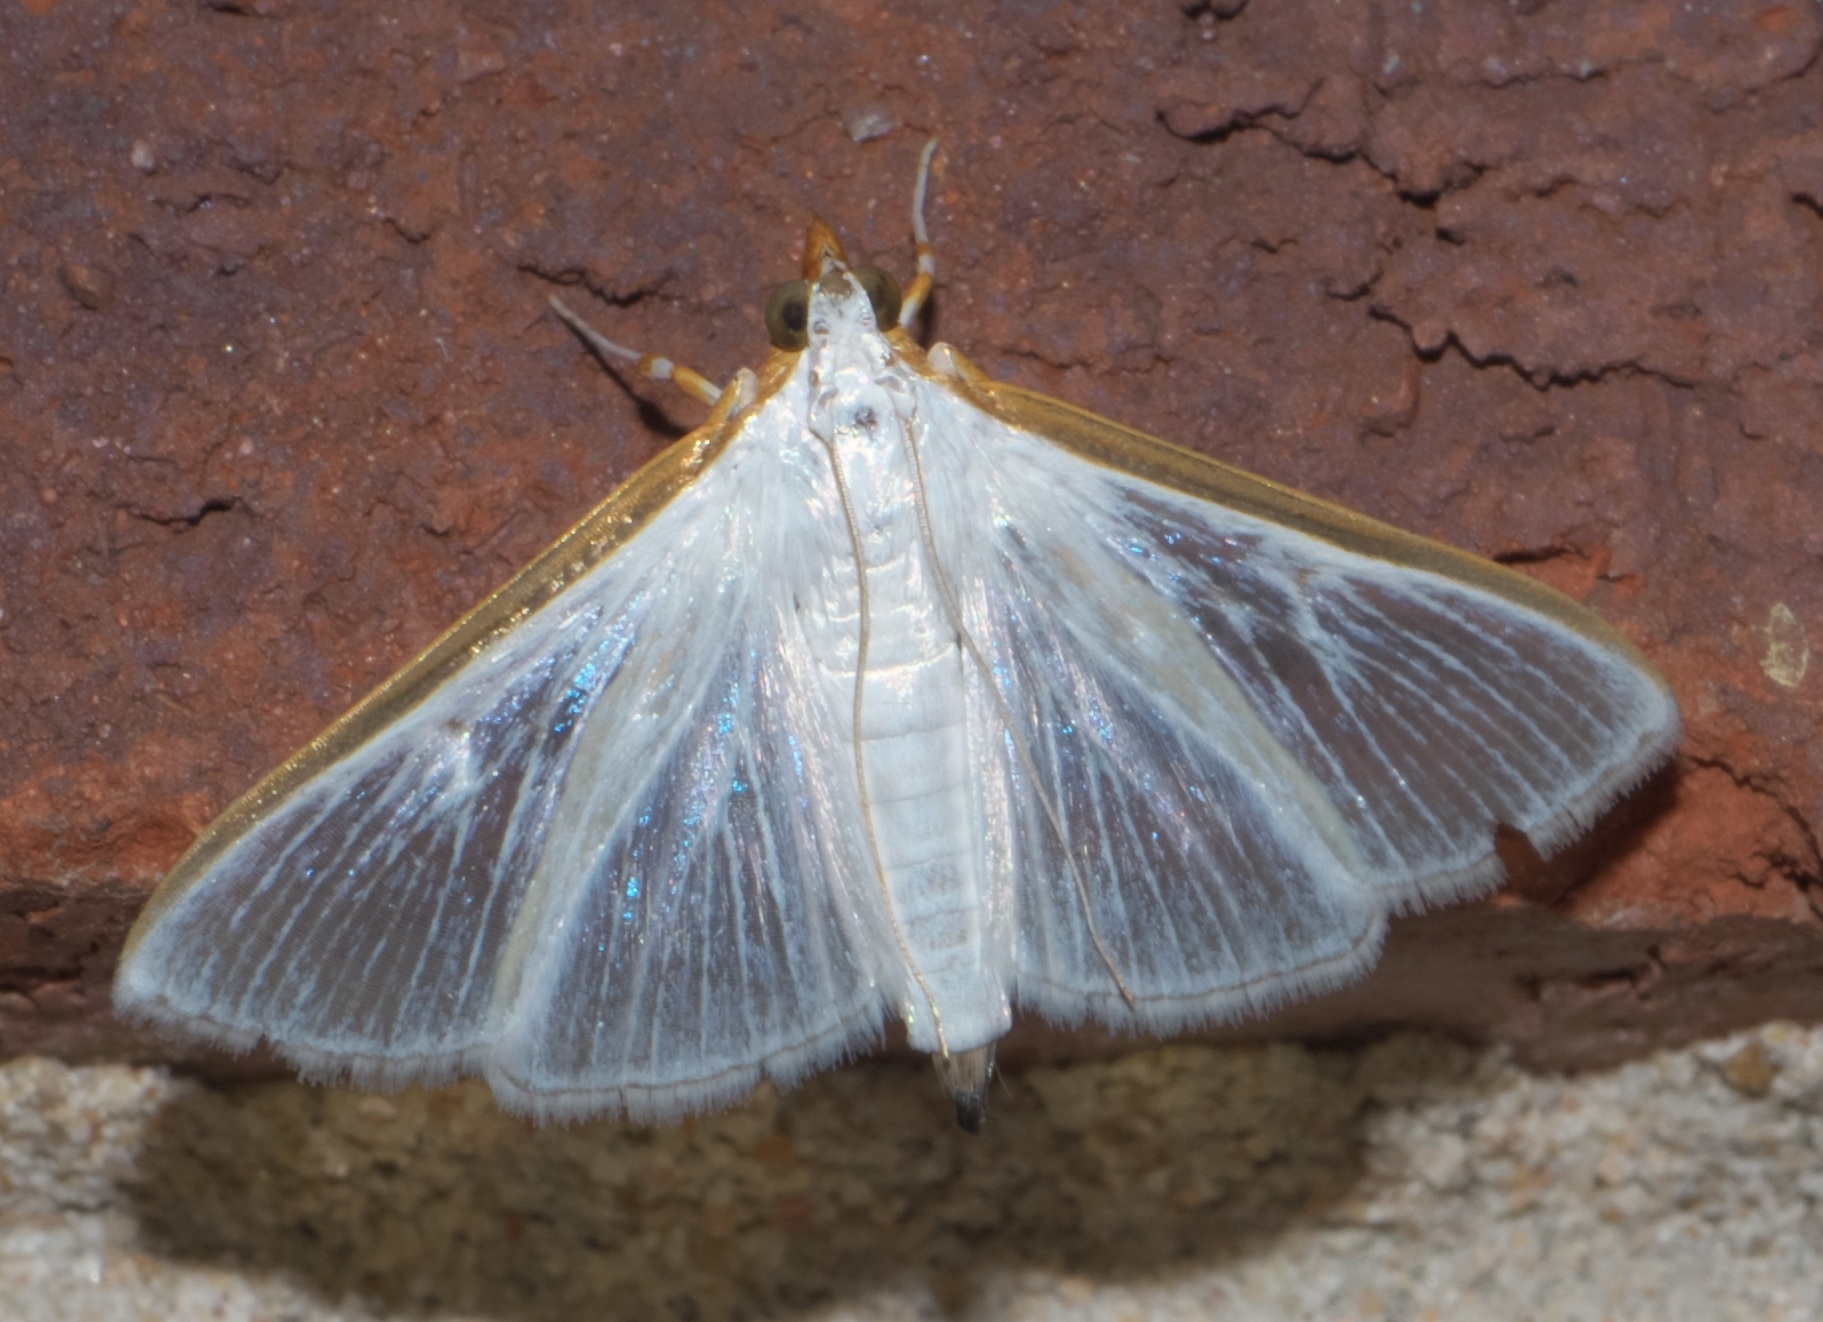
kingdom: Animalia
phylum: Arthropoda
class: Insecta
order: Lepidoptera
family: Crambidae
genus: Diaphania
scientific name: Diaphania costata
